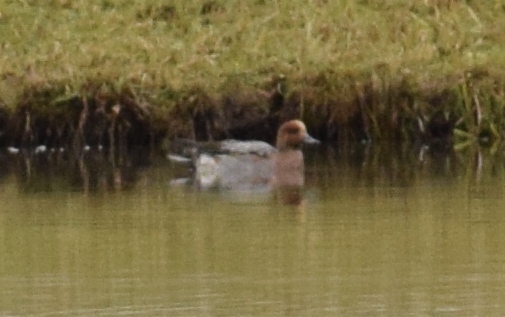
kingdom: Animalia
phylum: Chordata
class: Aves
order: Anseriformes
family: Anatidae
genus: Mareca
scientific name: Mareca penelope
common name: Eurasian wigeon
